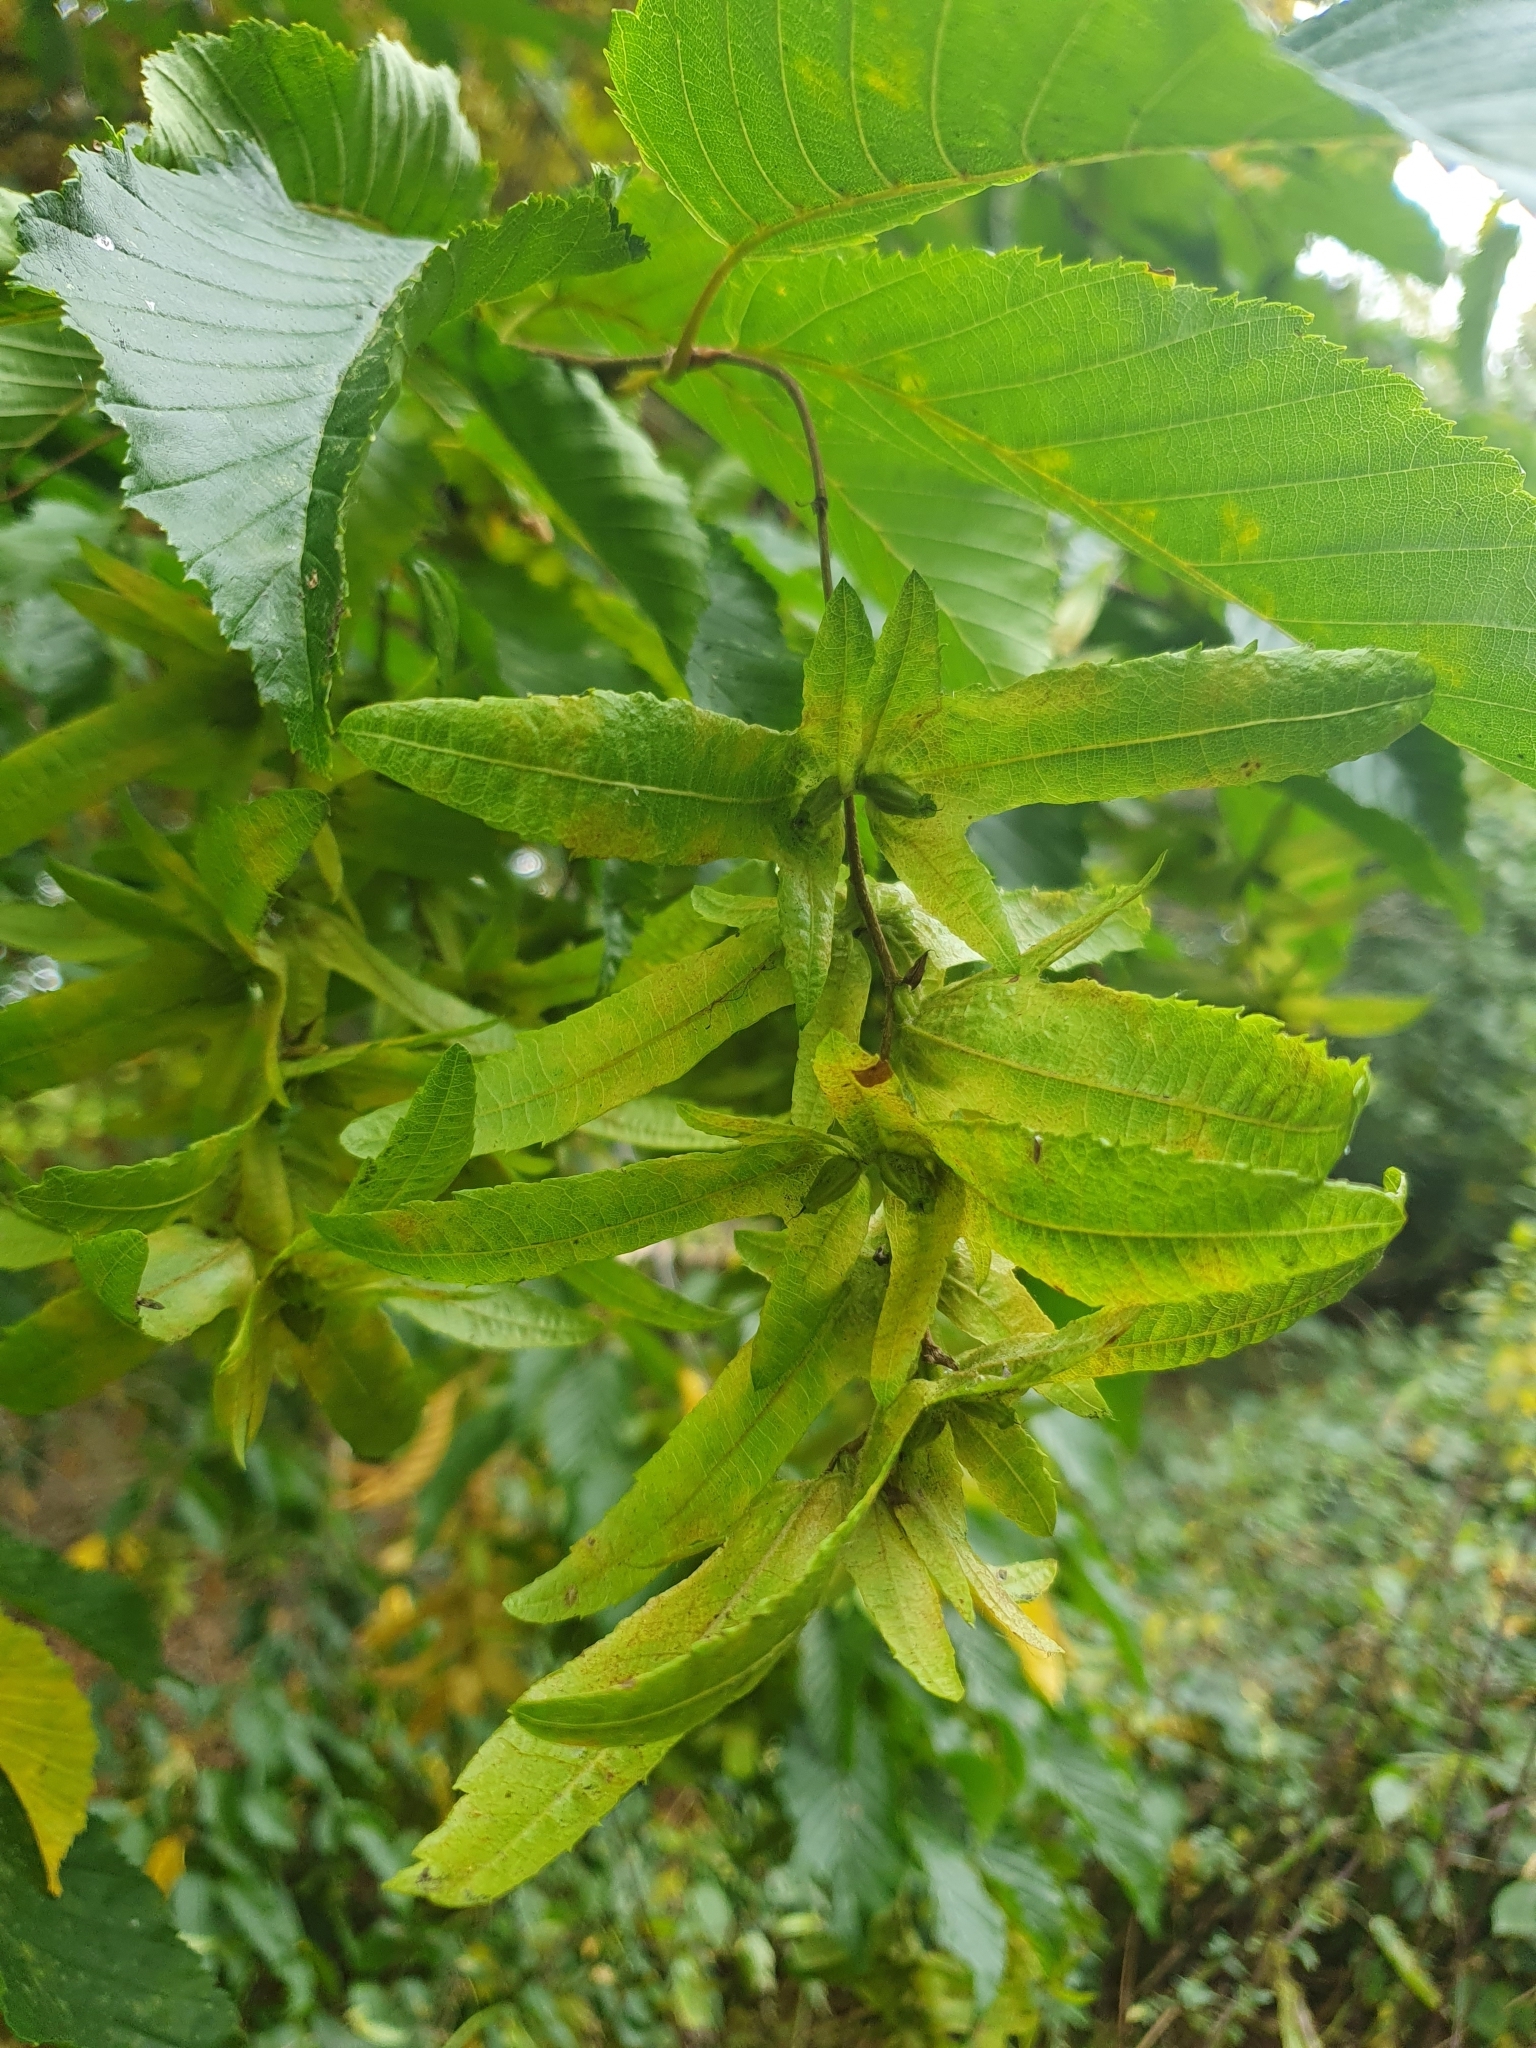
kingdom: Plantae
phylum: Tracheophyta
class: Magnoliopsida
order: Fagales
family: Betulaceae
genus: Carpinus
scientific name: Carpinus betulus
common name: Hornbeam
